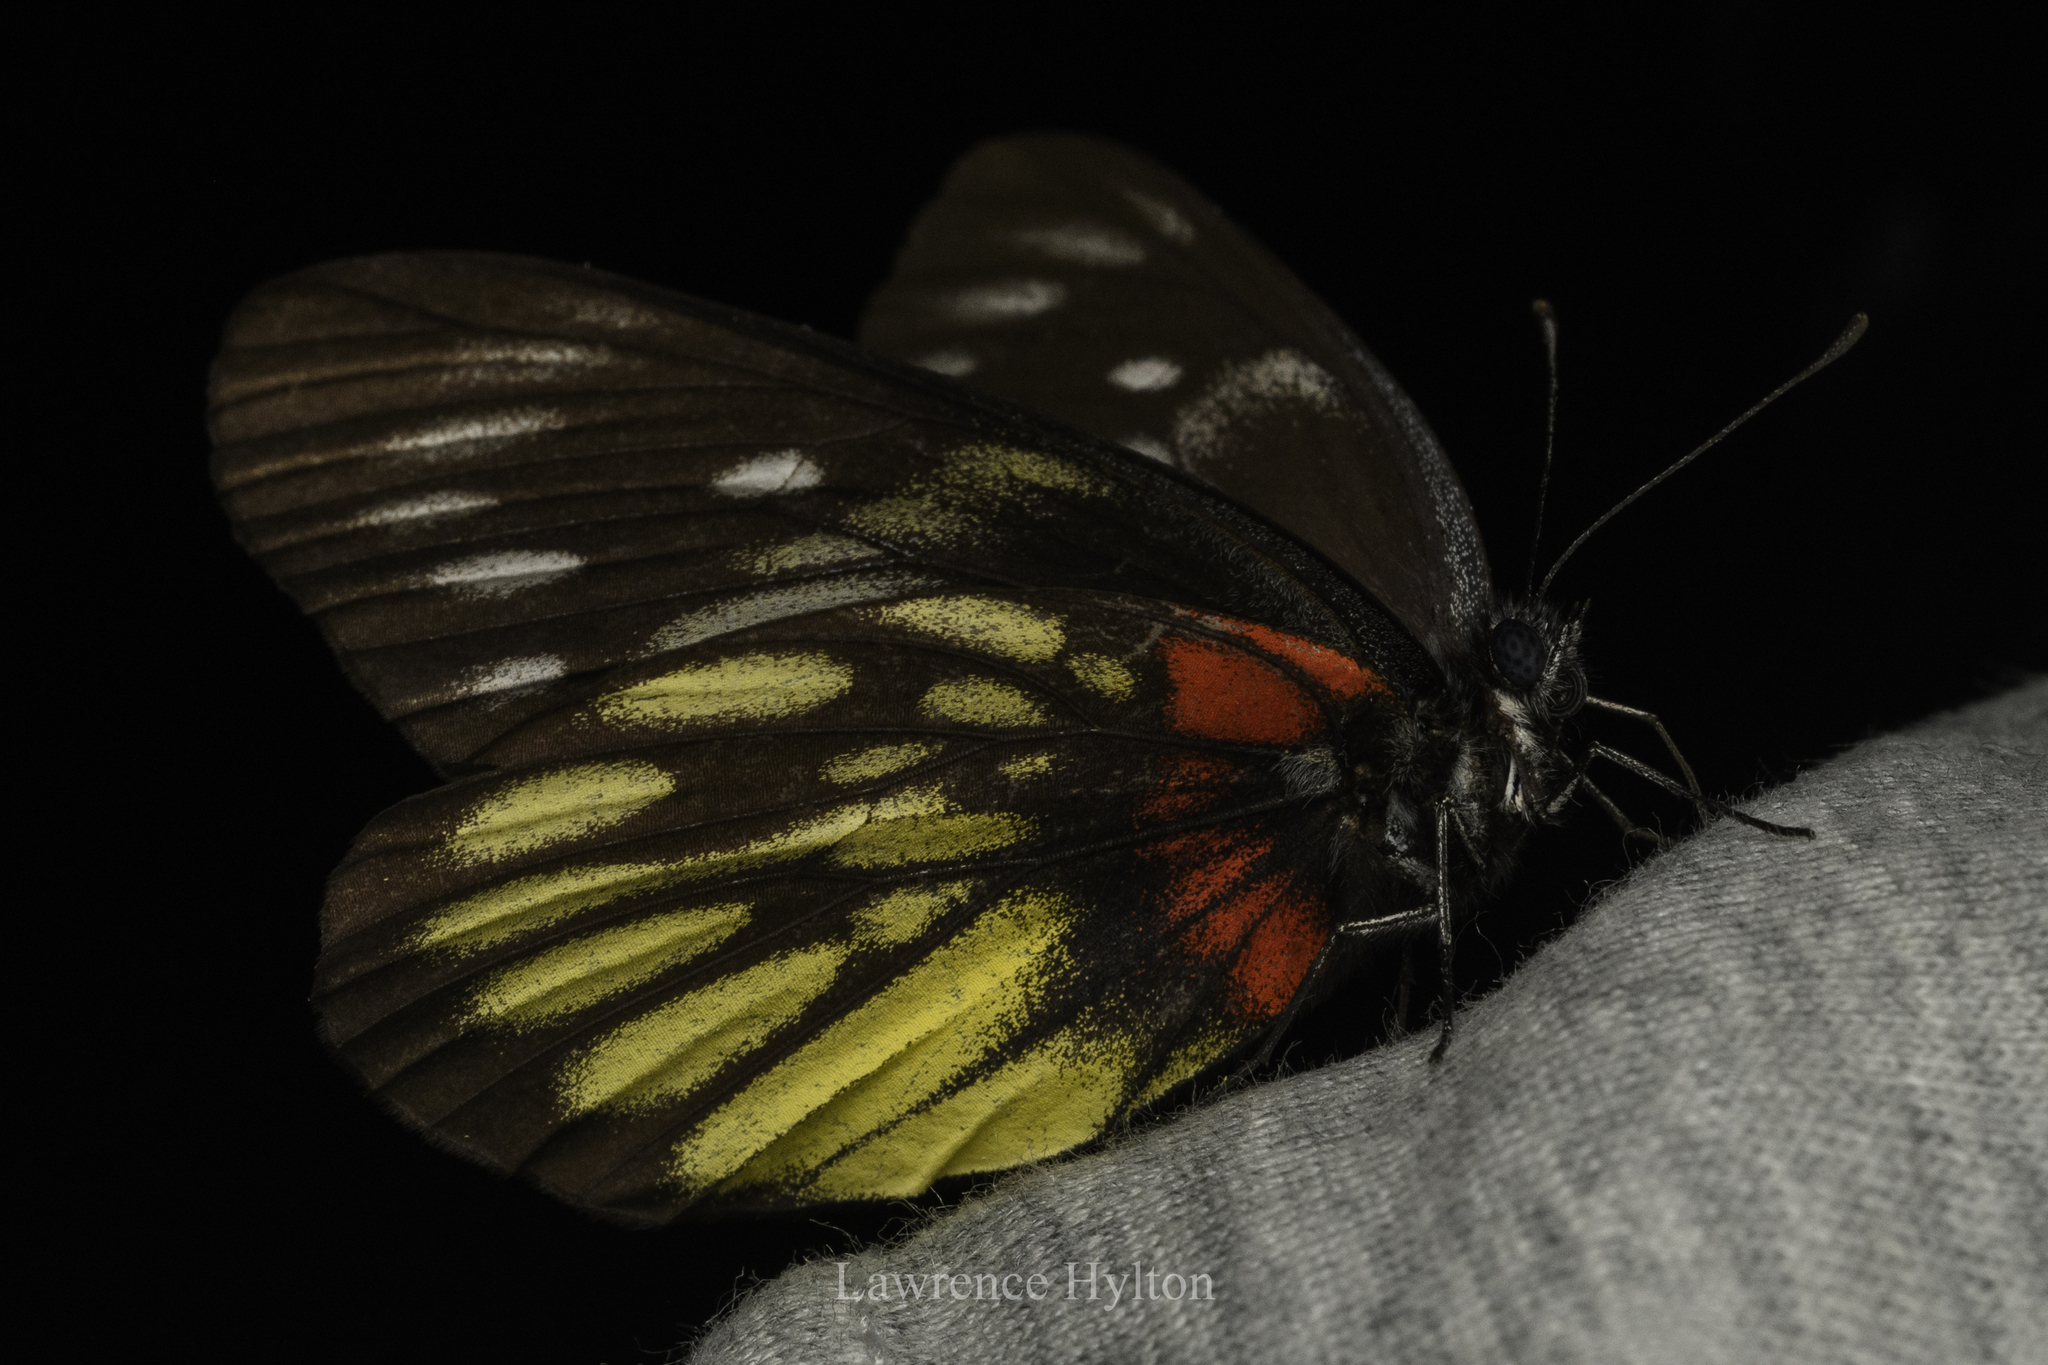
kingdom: Animalia
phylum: Arthropoda
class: Insecta
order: Lepidoptera
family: Pieridae
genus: Delias
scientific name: Delias pasithoe
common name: Red-base jezebel
